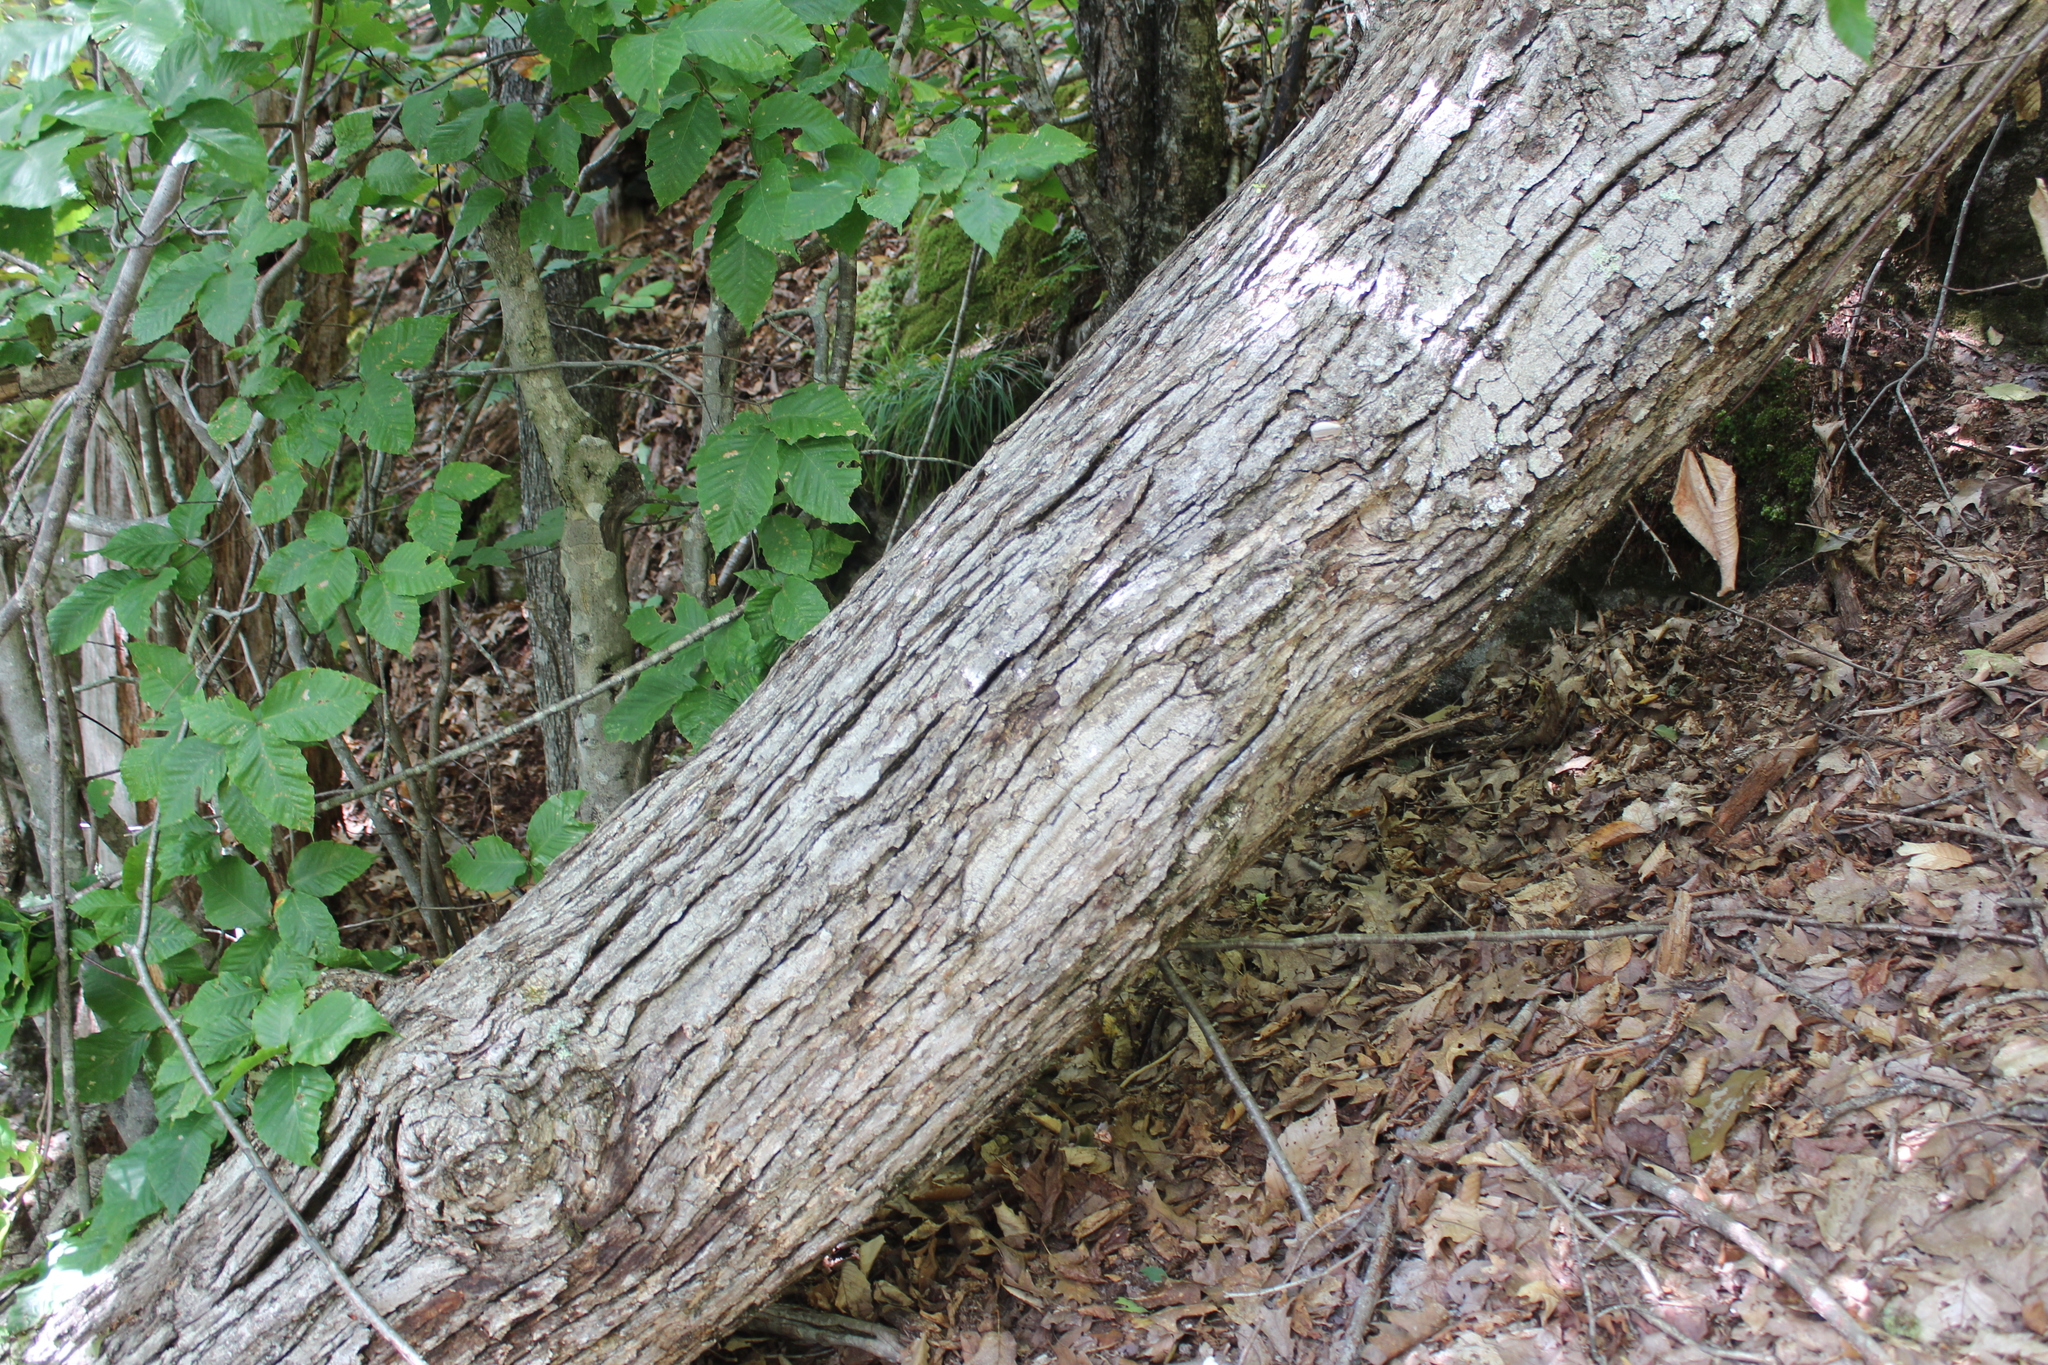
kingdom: Plantae
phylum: Tracheophyta
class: Magnoliopsida
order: Fagales
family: Fagaceae
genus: Quercus
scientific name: Quercus alba
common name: White oak
